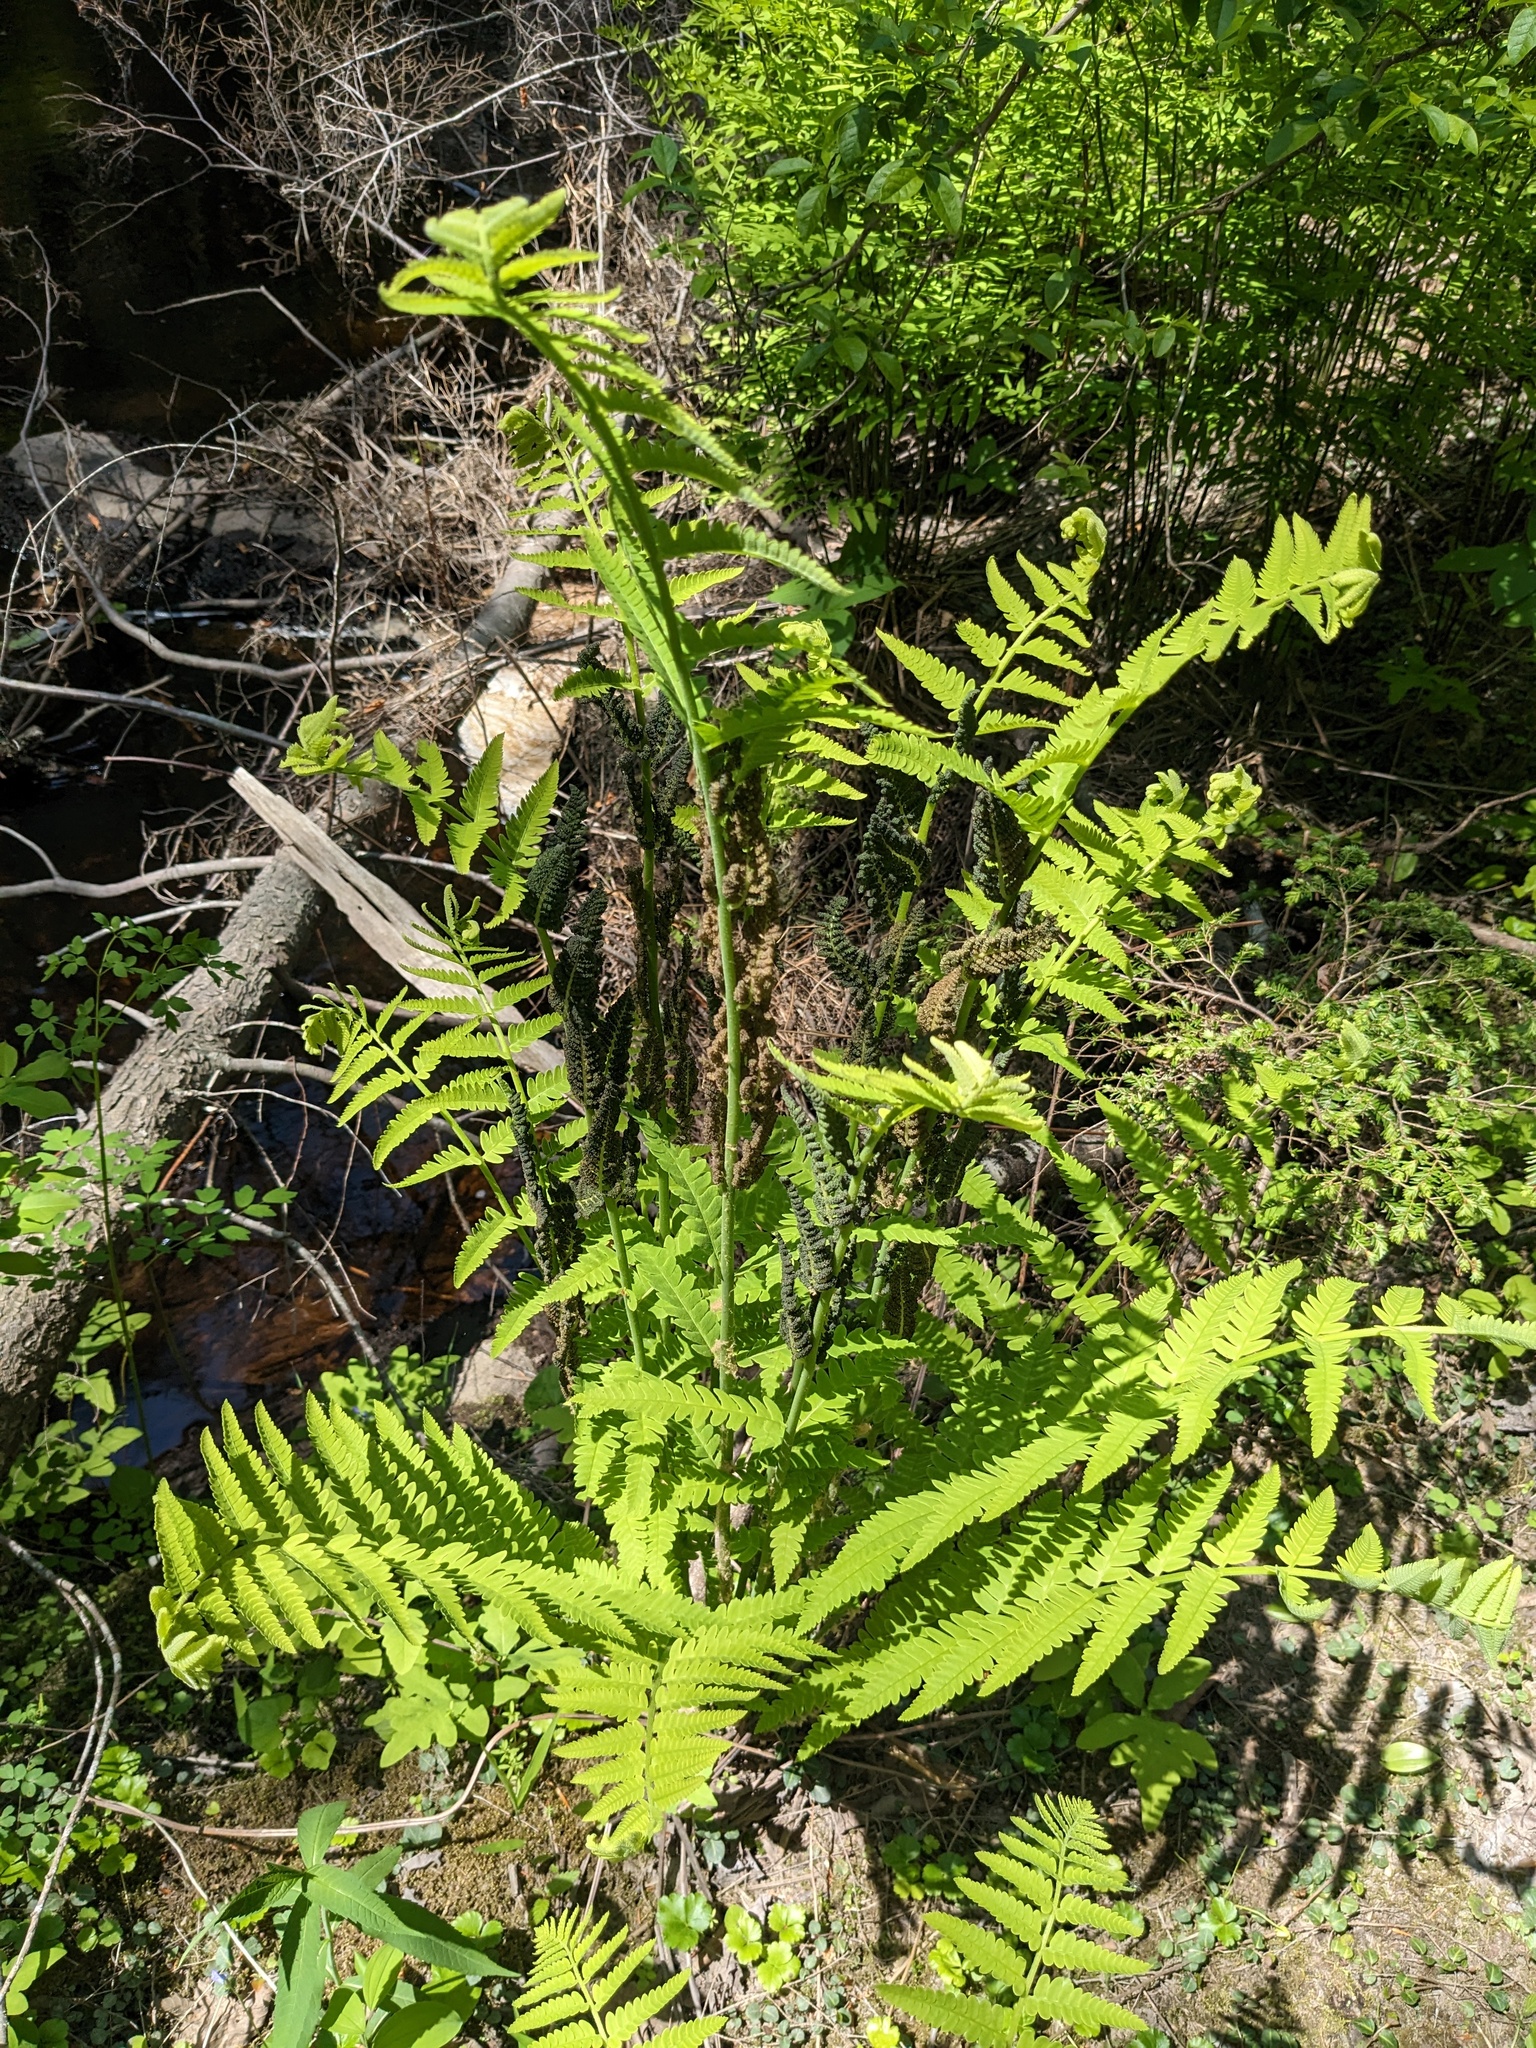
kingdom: Plantae
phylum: Tracheophyta
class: Polypodiopsida
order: Osmundales
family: Osmundaceae
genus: Claytosmunda
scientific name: Claytosmunda claytoniana
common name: Clayton's fern
